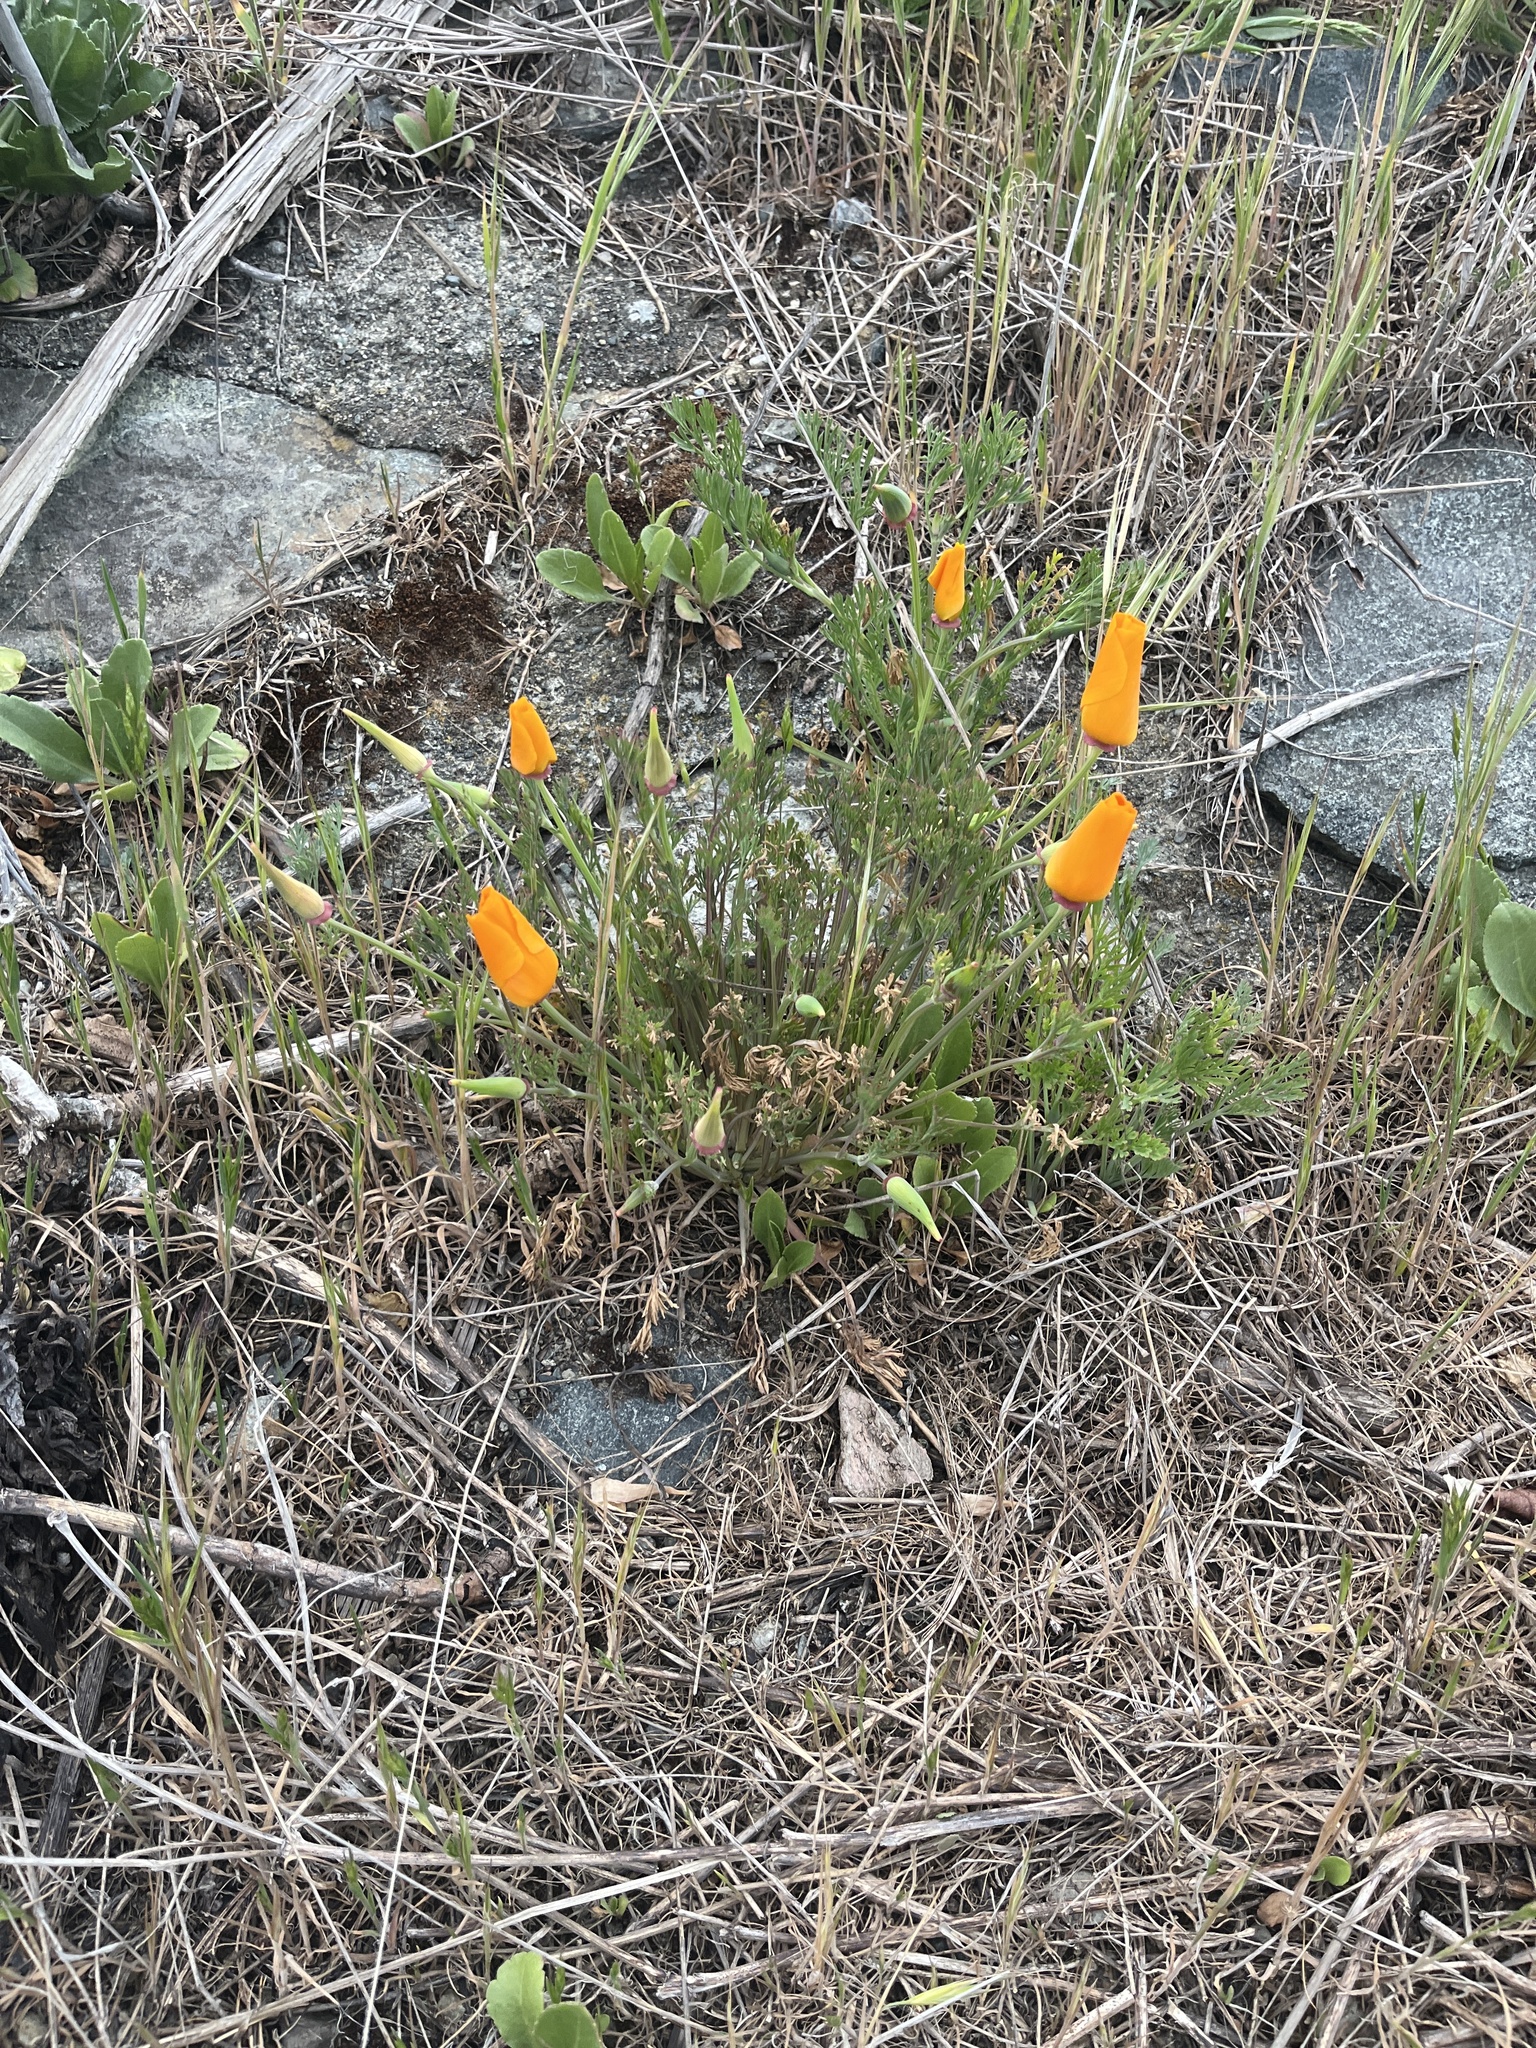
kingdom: Plantae
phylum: Tracheophyta
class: Magnoliopsida
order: Ranunculales
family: Papaveraceae
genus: Eschscholzia
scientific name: Eschscholzia californica
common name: California poppy
